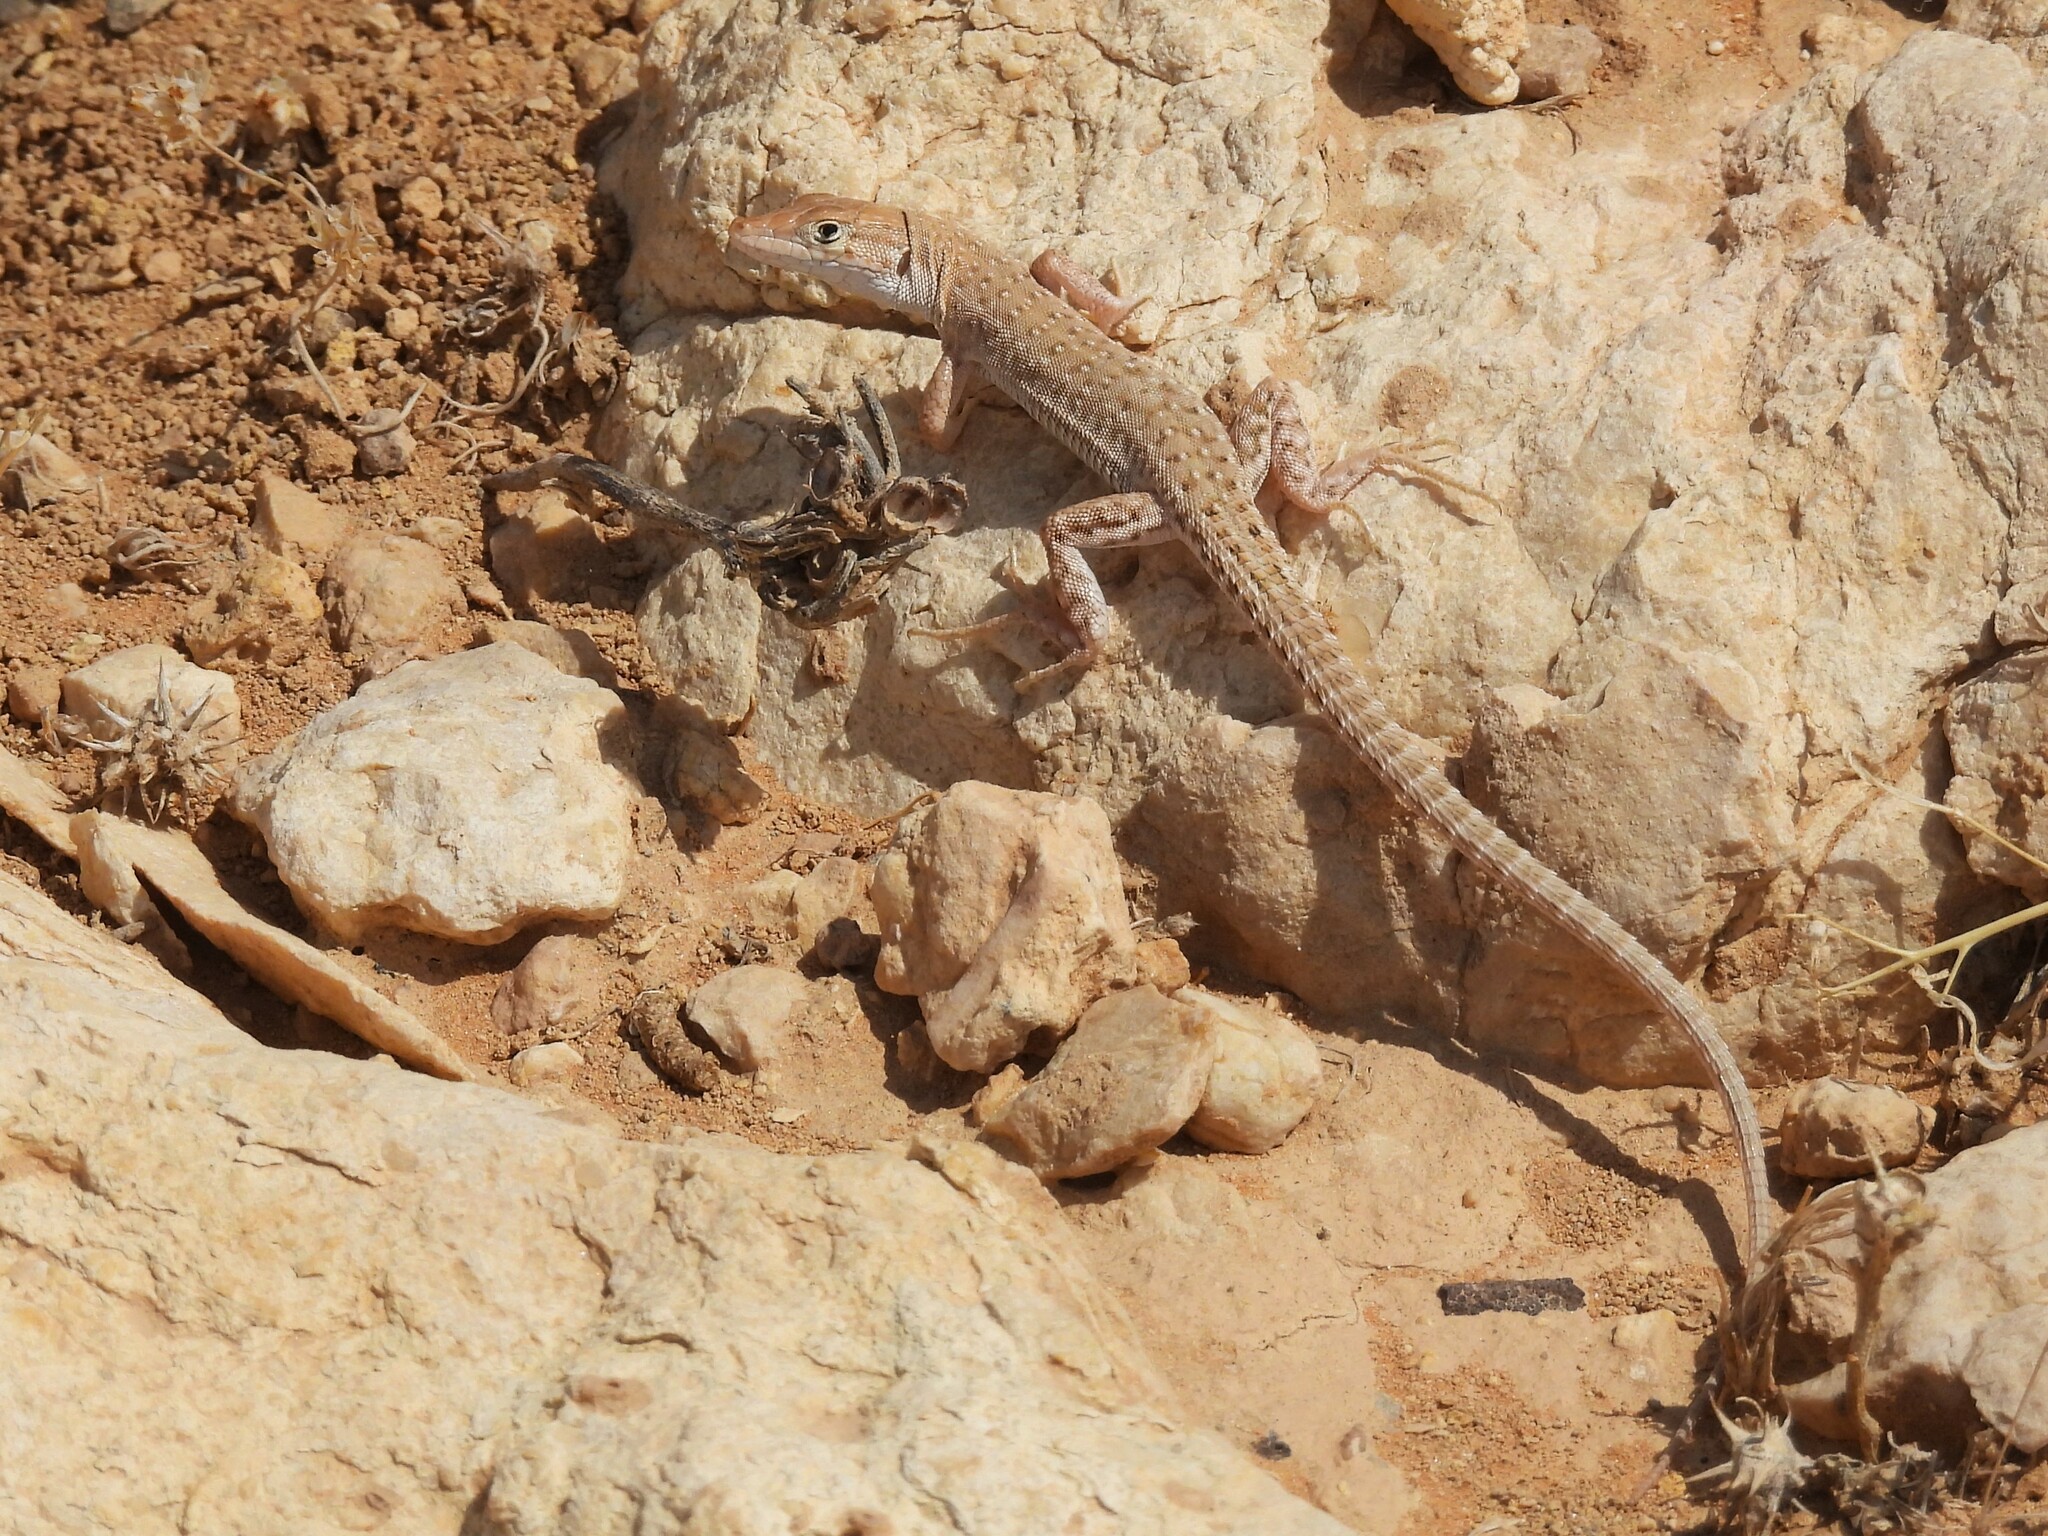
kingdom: Animalia
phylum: Chordata
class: Squamata
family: Lacertidae
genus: Mesalina
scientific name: Mesalina guttulata
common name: Desert lacerta
